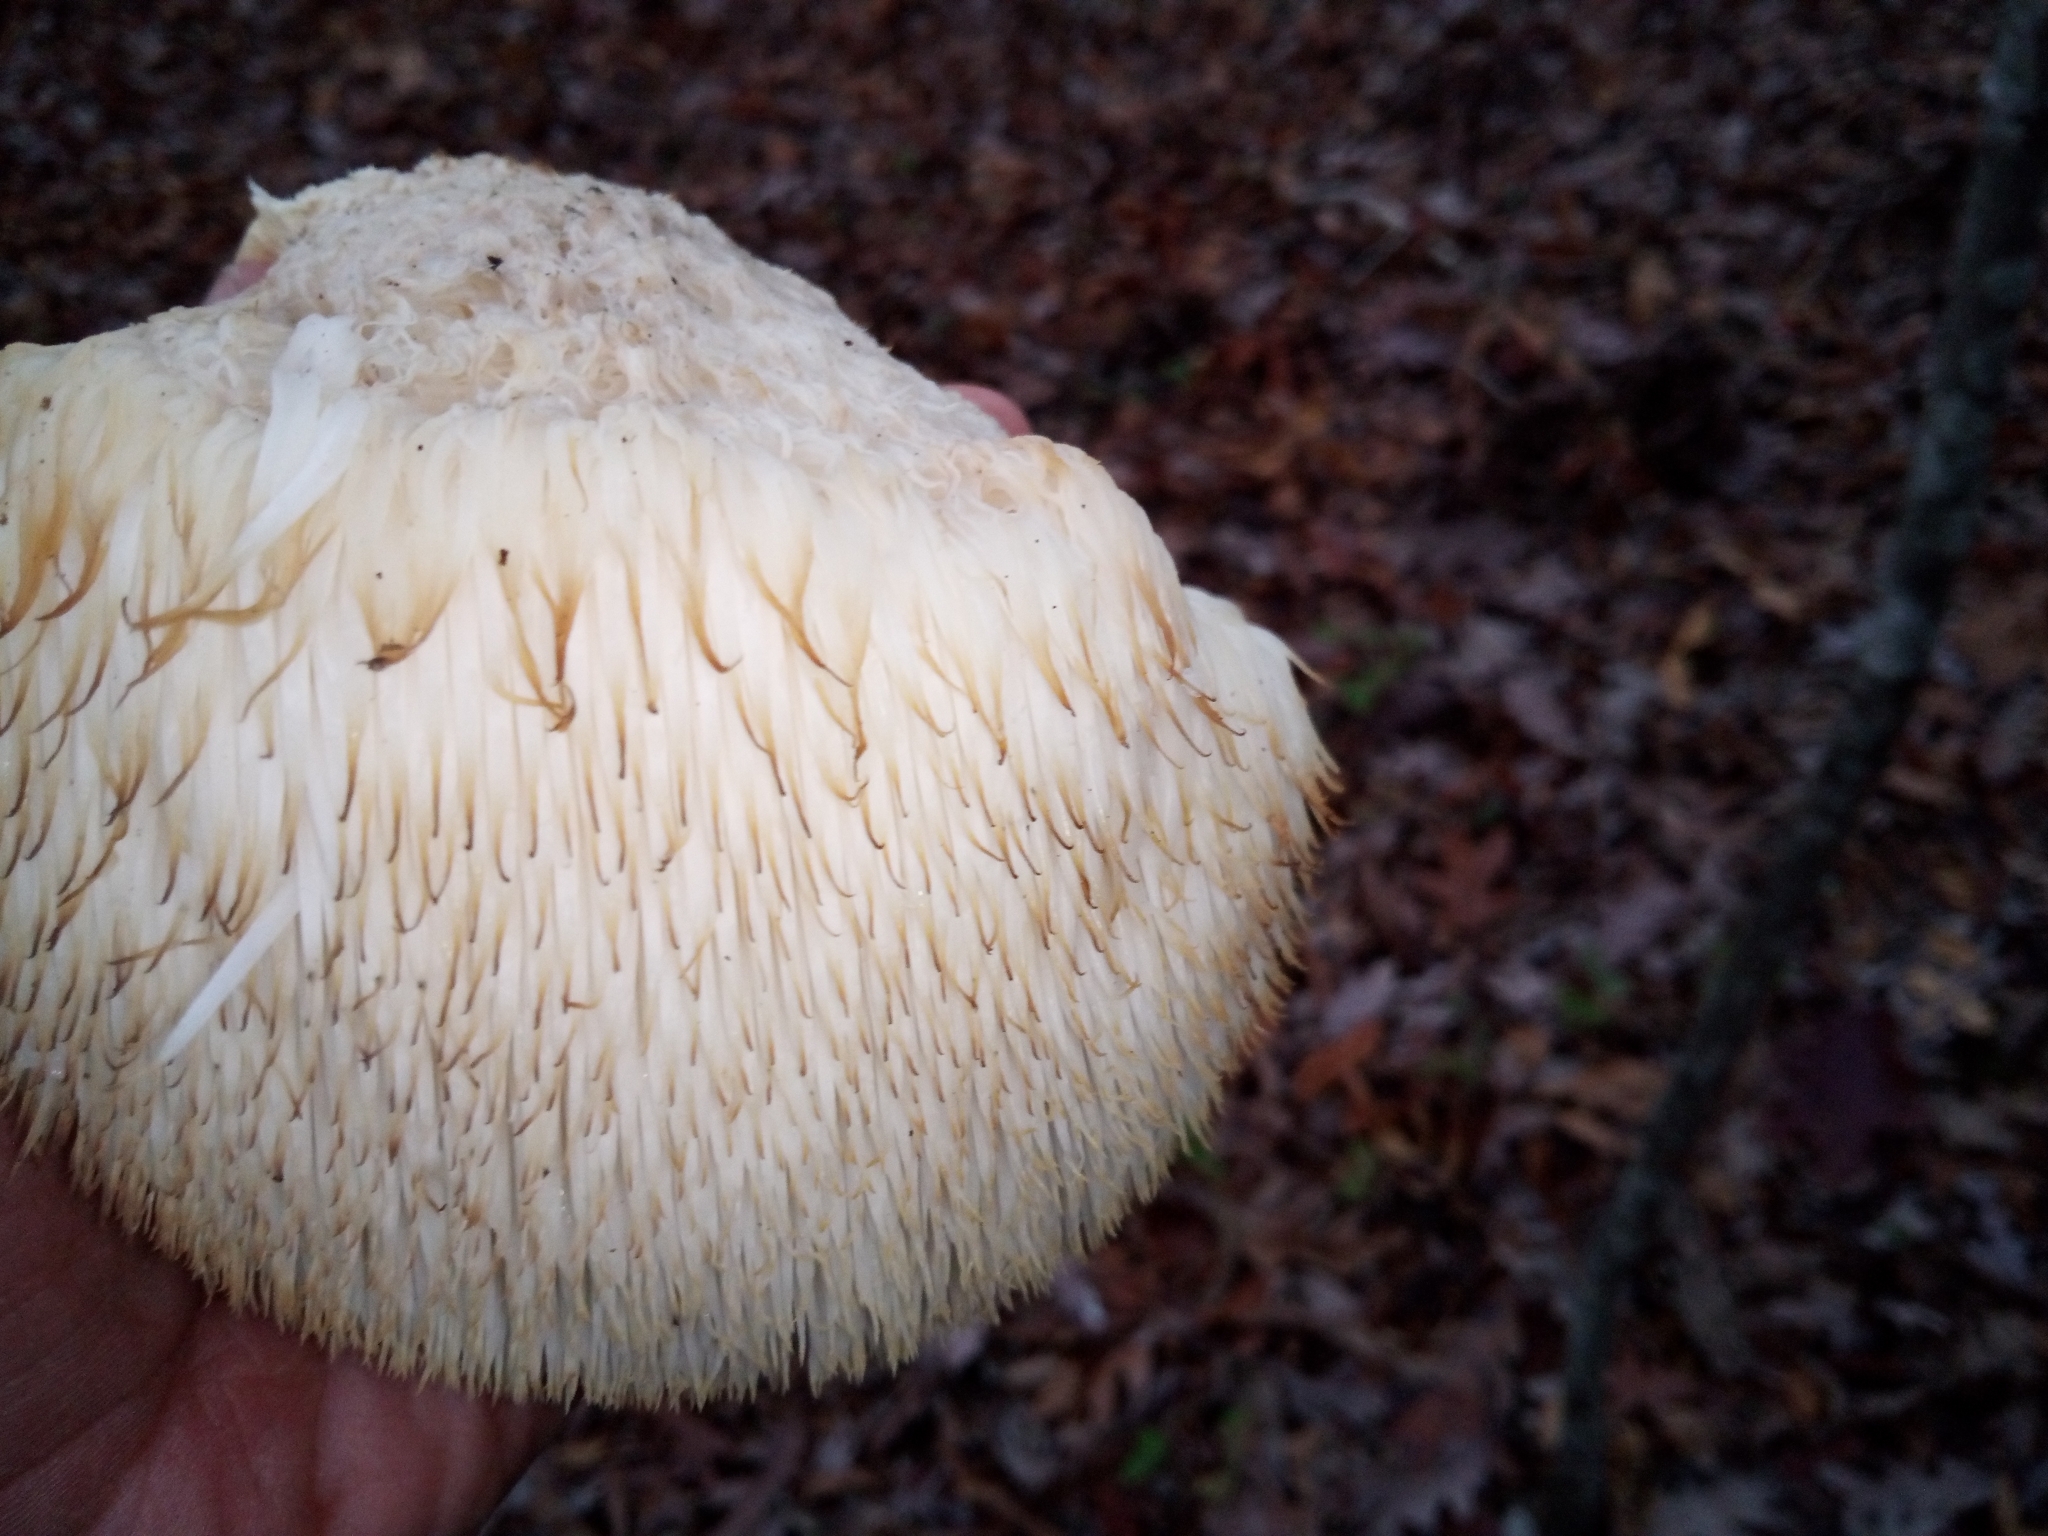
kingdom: Fungi
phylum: Basidiomycota
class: Agaricomycetes
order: Russulales
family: Hericiaceae
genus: Hericium
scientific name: Hericium erinaceus
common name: Bearded tooth
